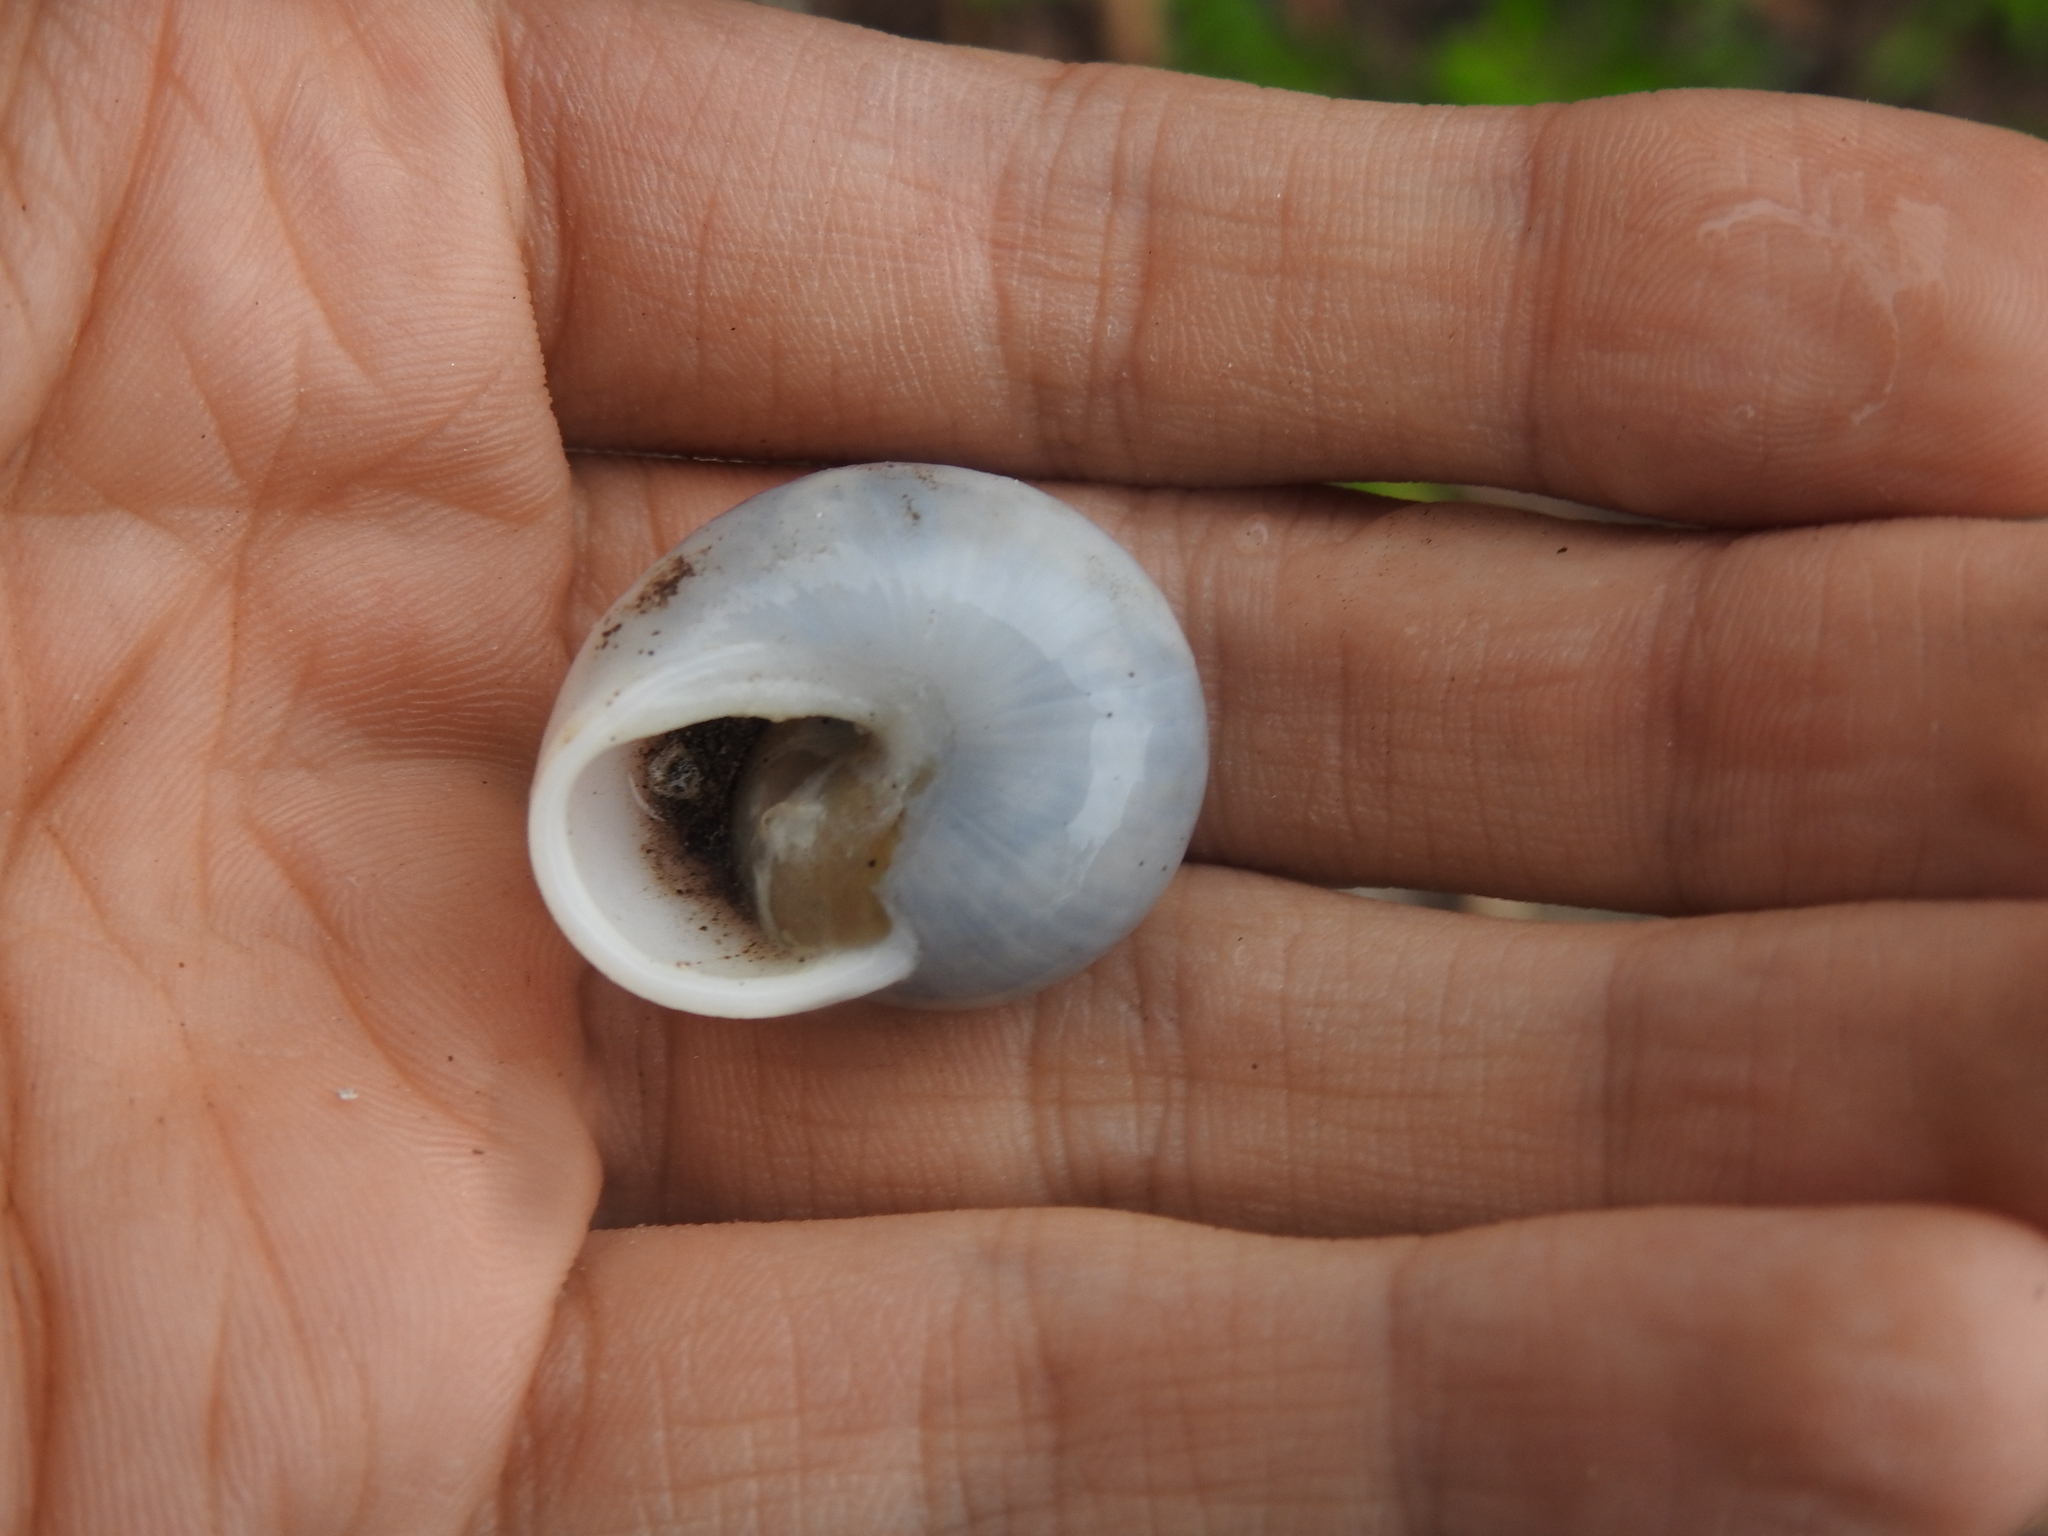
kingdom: Animalia
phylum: Mollusca
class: Gastropoda
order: Stylommatophora
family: Zachrysiidae
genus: Zachrysia
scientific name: Zachrysia provisoria
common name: Garden zachrysia
